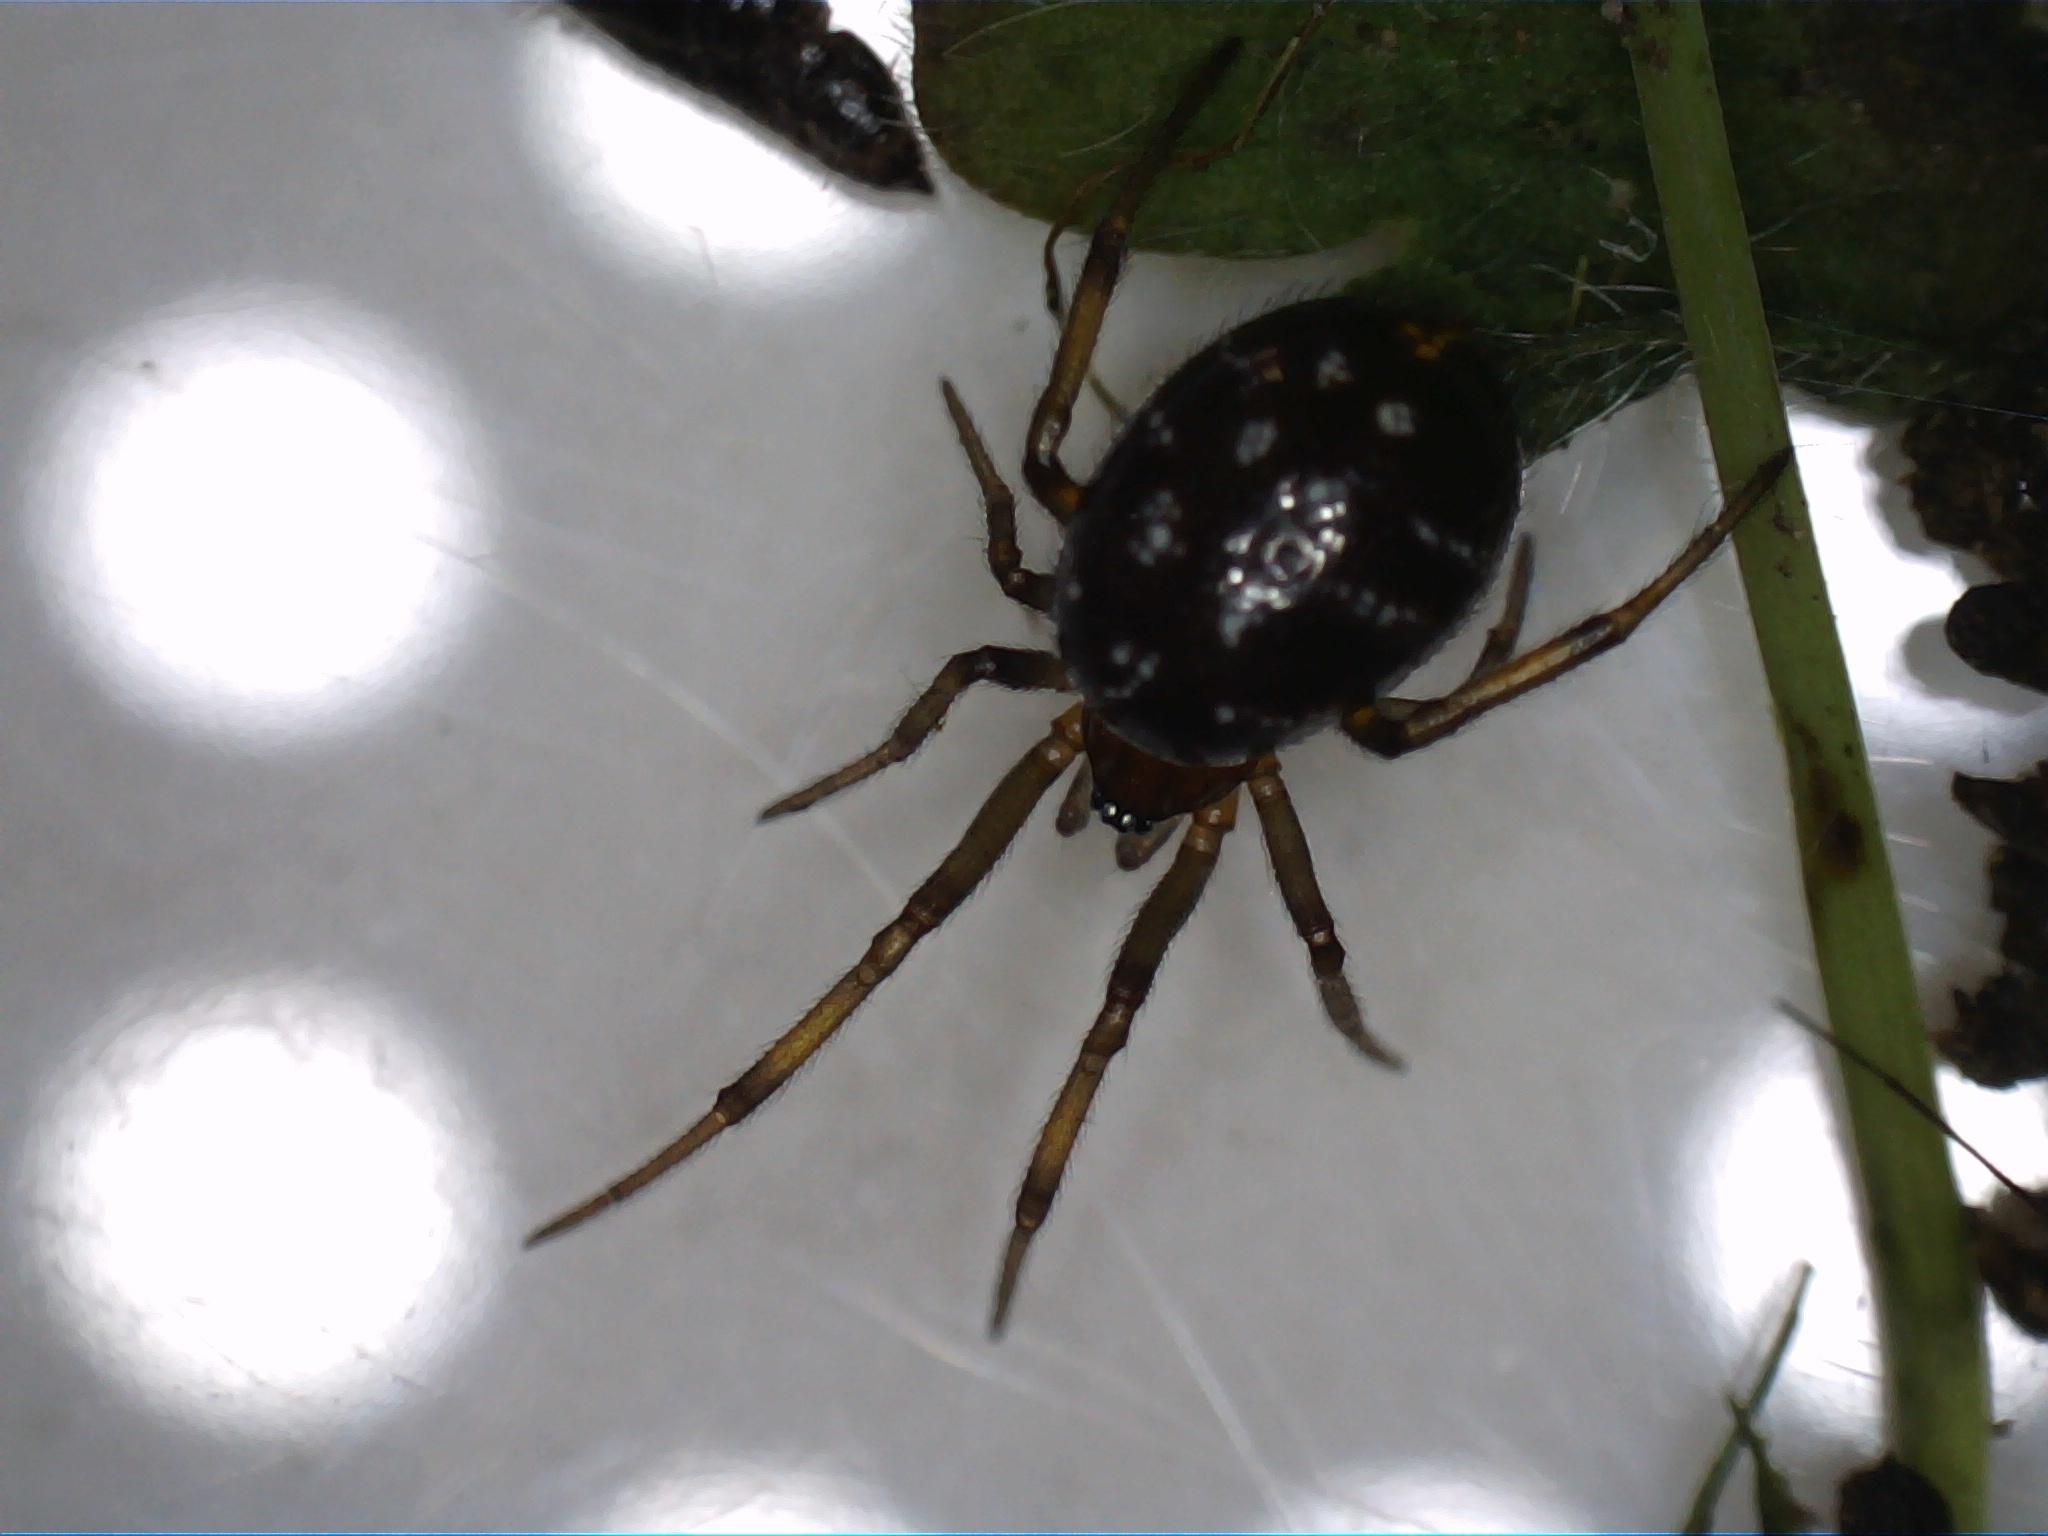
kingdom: Animalia
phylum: Arthropoda
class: Arachnida
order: Araneae
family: Theridiidae
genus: Steatoda
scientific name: Steatoda capensis
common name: Cobweb weaver
